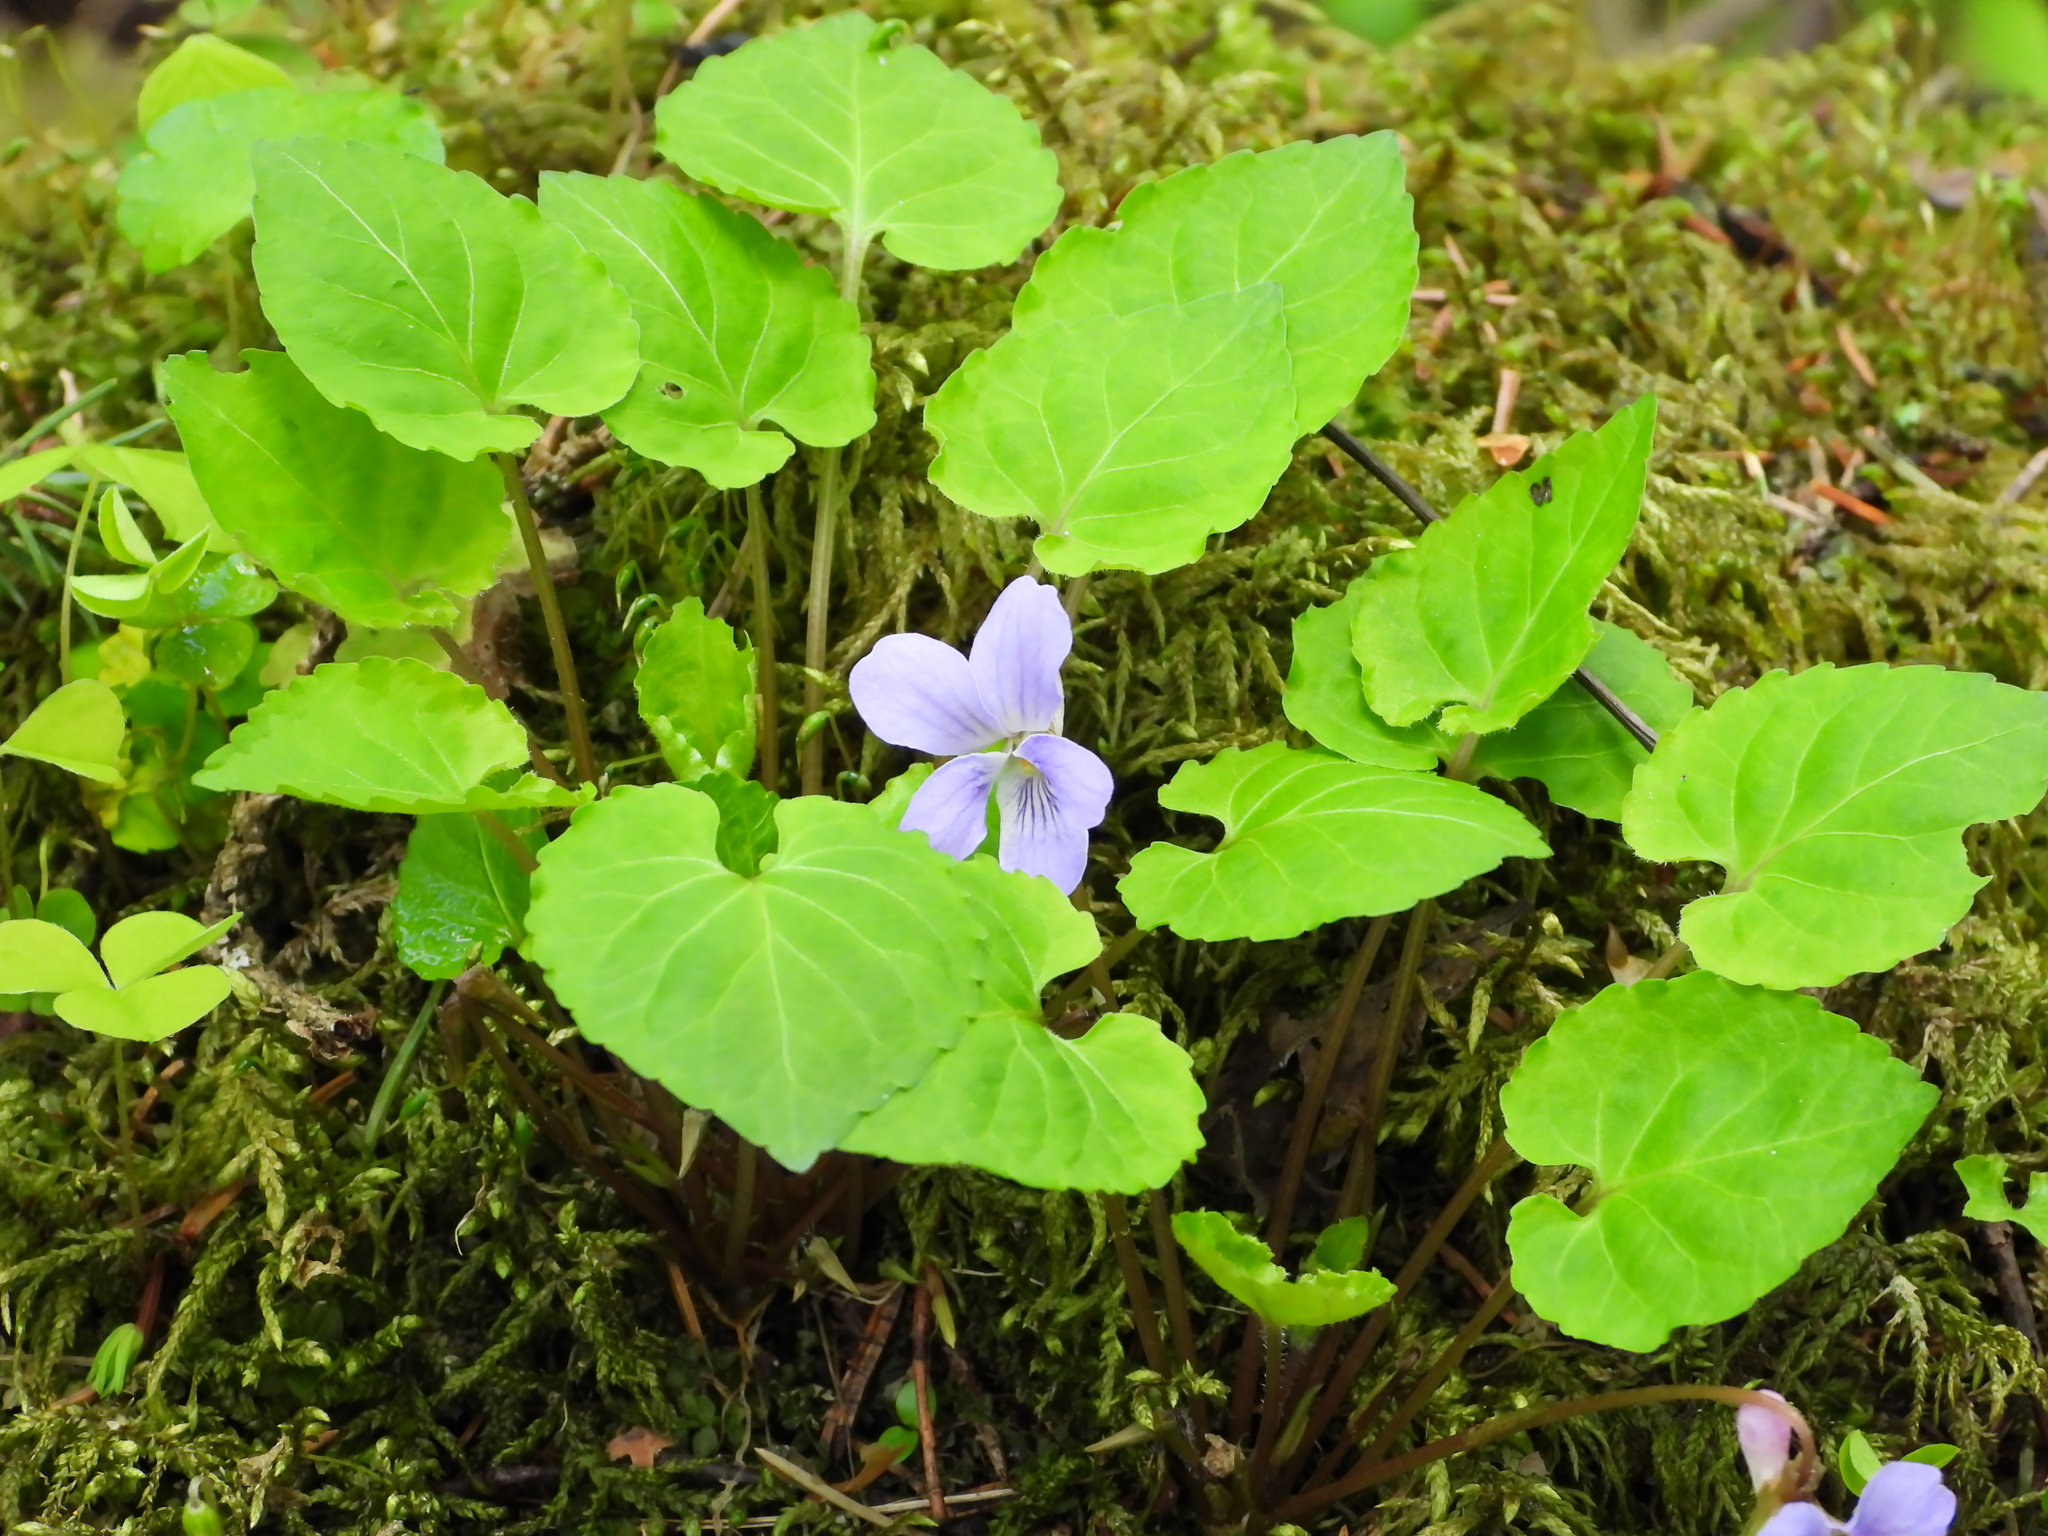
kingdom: Plantae
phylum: Tracheophyta
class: Magnoliopsida
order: Malpighiales
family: Violaceae
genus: Viola
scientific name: Viola selkirkii
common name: Selkirk's violet
